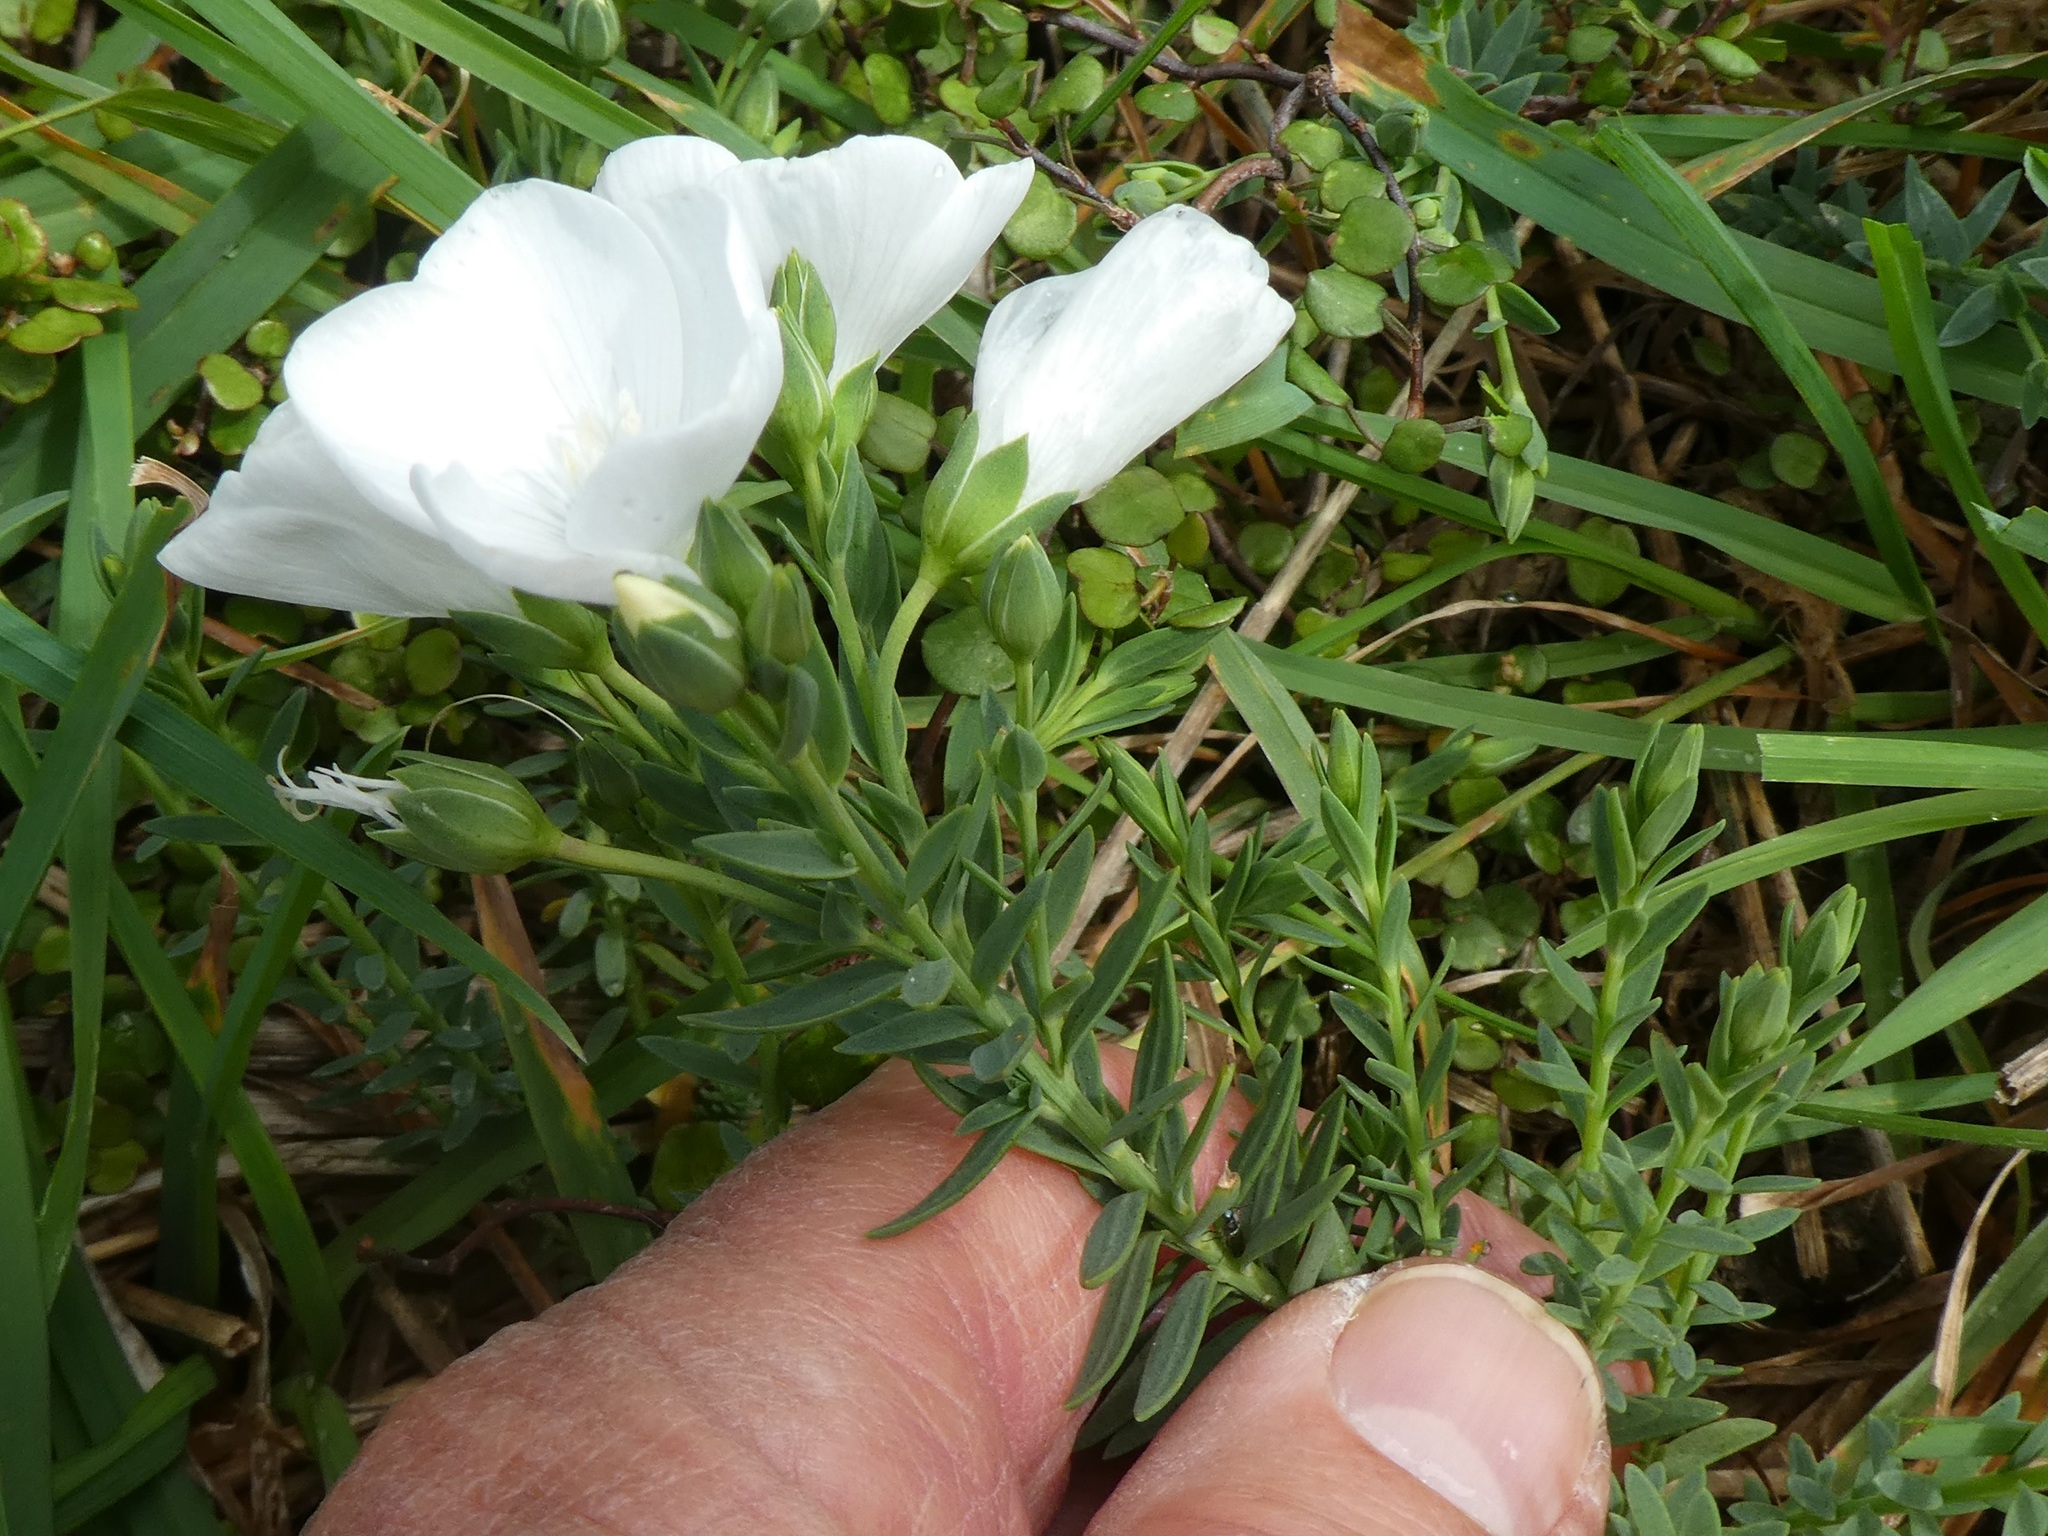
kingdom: Plantae
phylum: Tracheophyta
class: Magnoliopsida
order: Malpighiales
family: Linaceae
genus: Linum
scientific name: Linum monogynum
